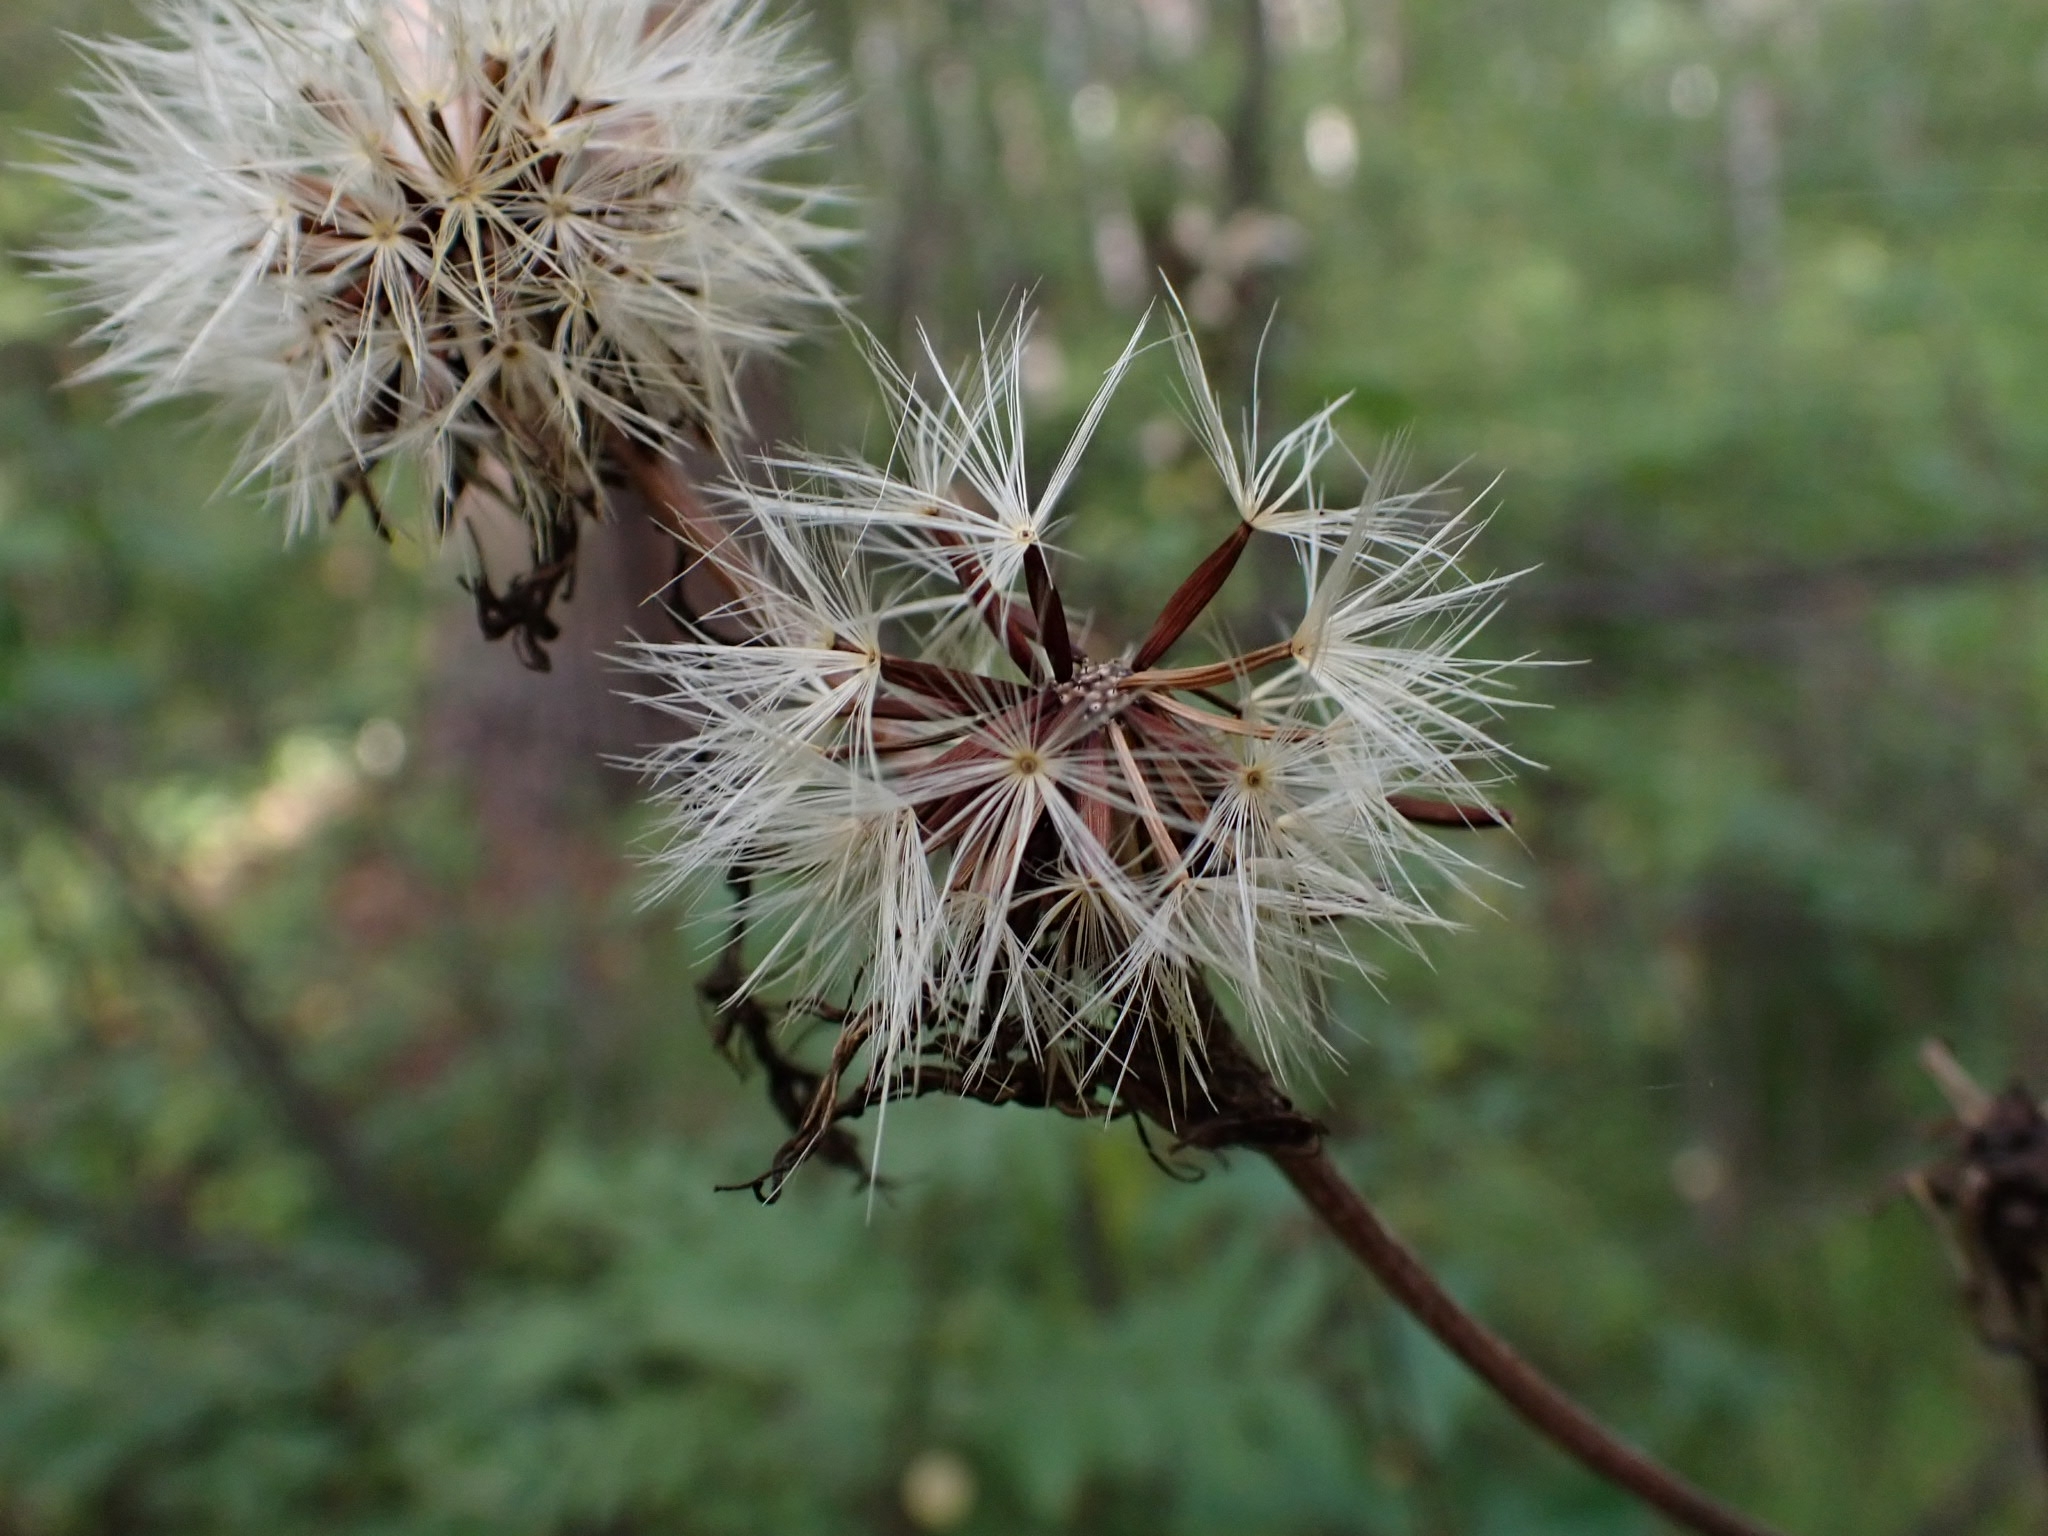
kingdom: Plantae
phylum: Tracheophyta
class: Magnoliopsida
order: Asterales
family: Asteraceae
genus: Crepis
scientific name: Crepis sibirica
